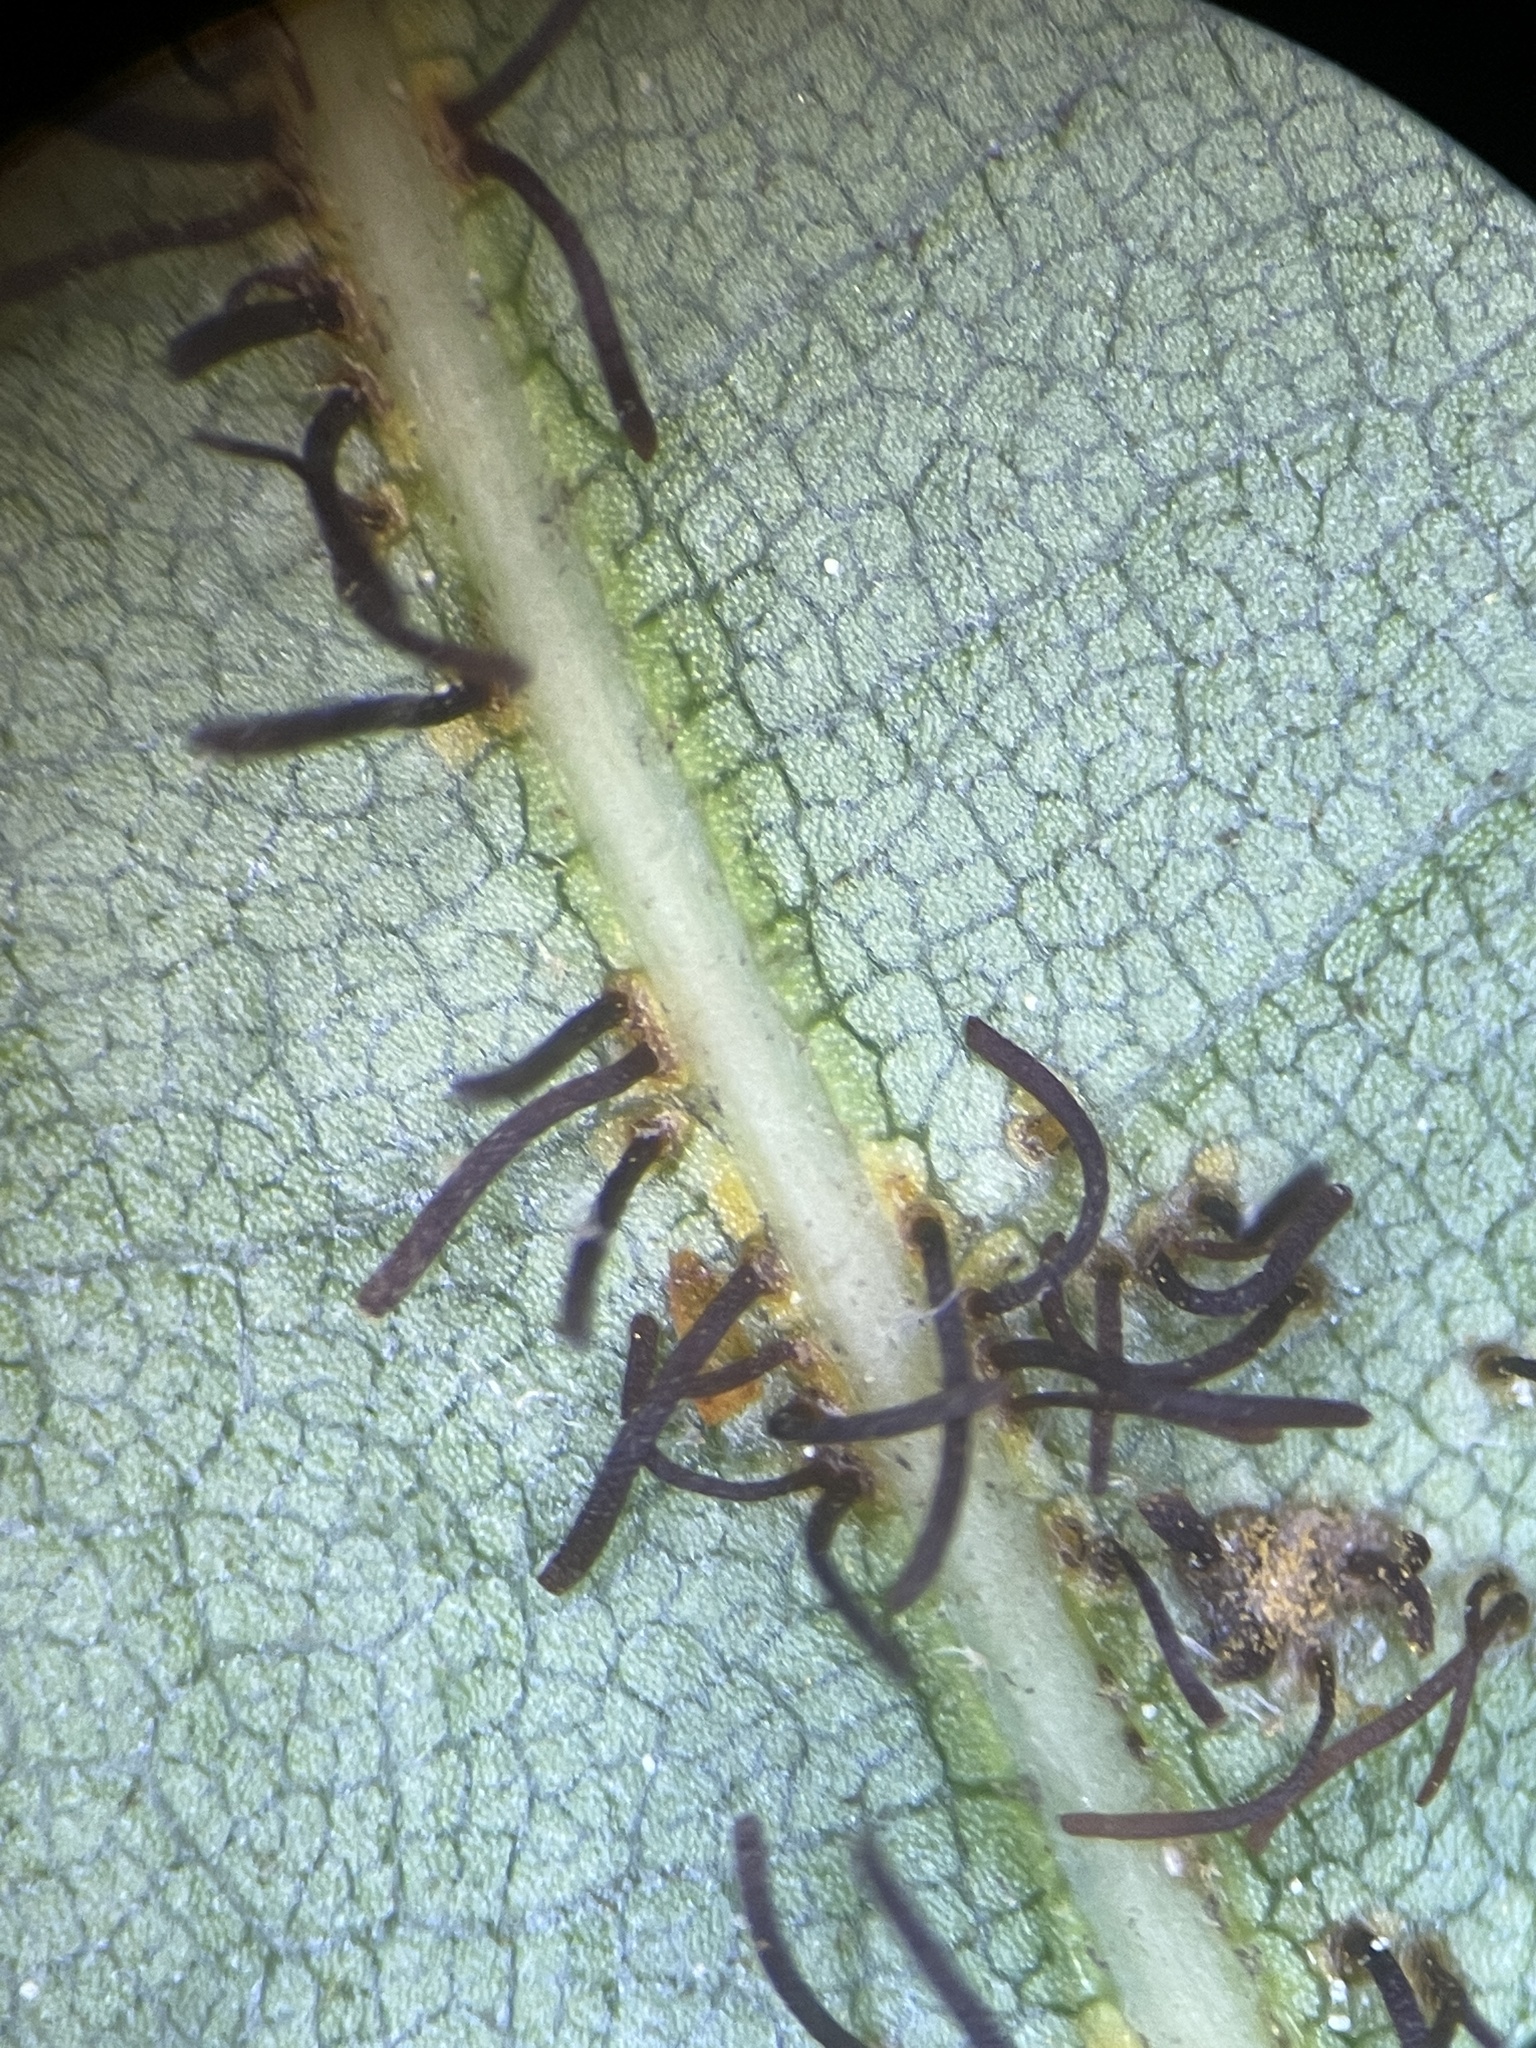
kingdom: Fungi
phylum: Basidiomycota
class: Pucciniomycetes
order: Pucciniales
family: Cronartiaceae
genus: Cronartium
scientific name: Cronartium quercuum
